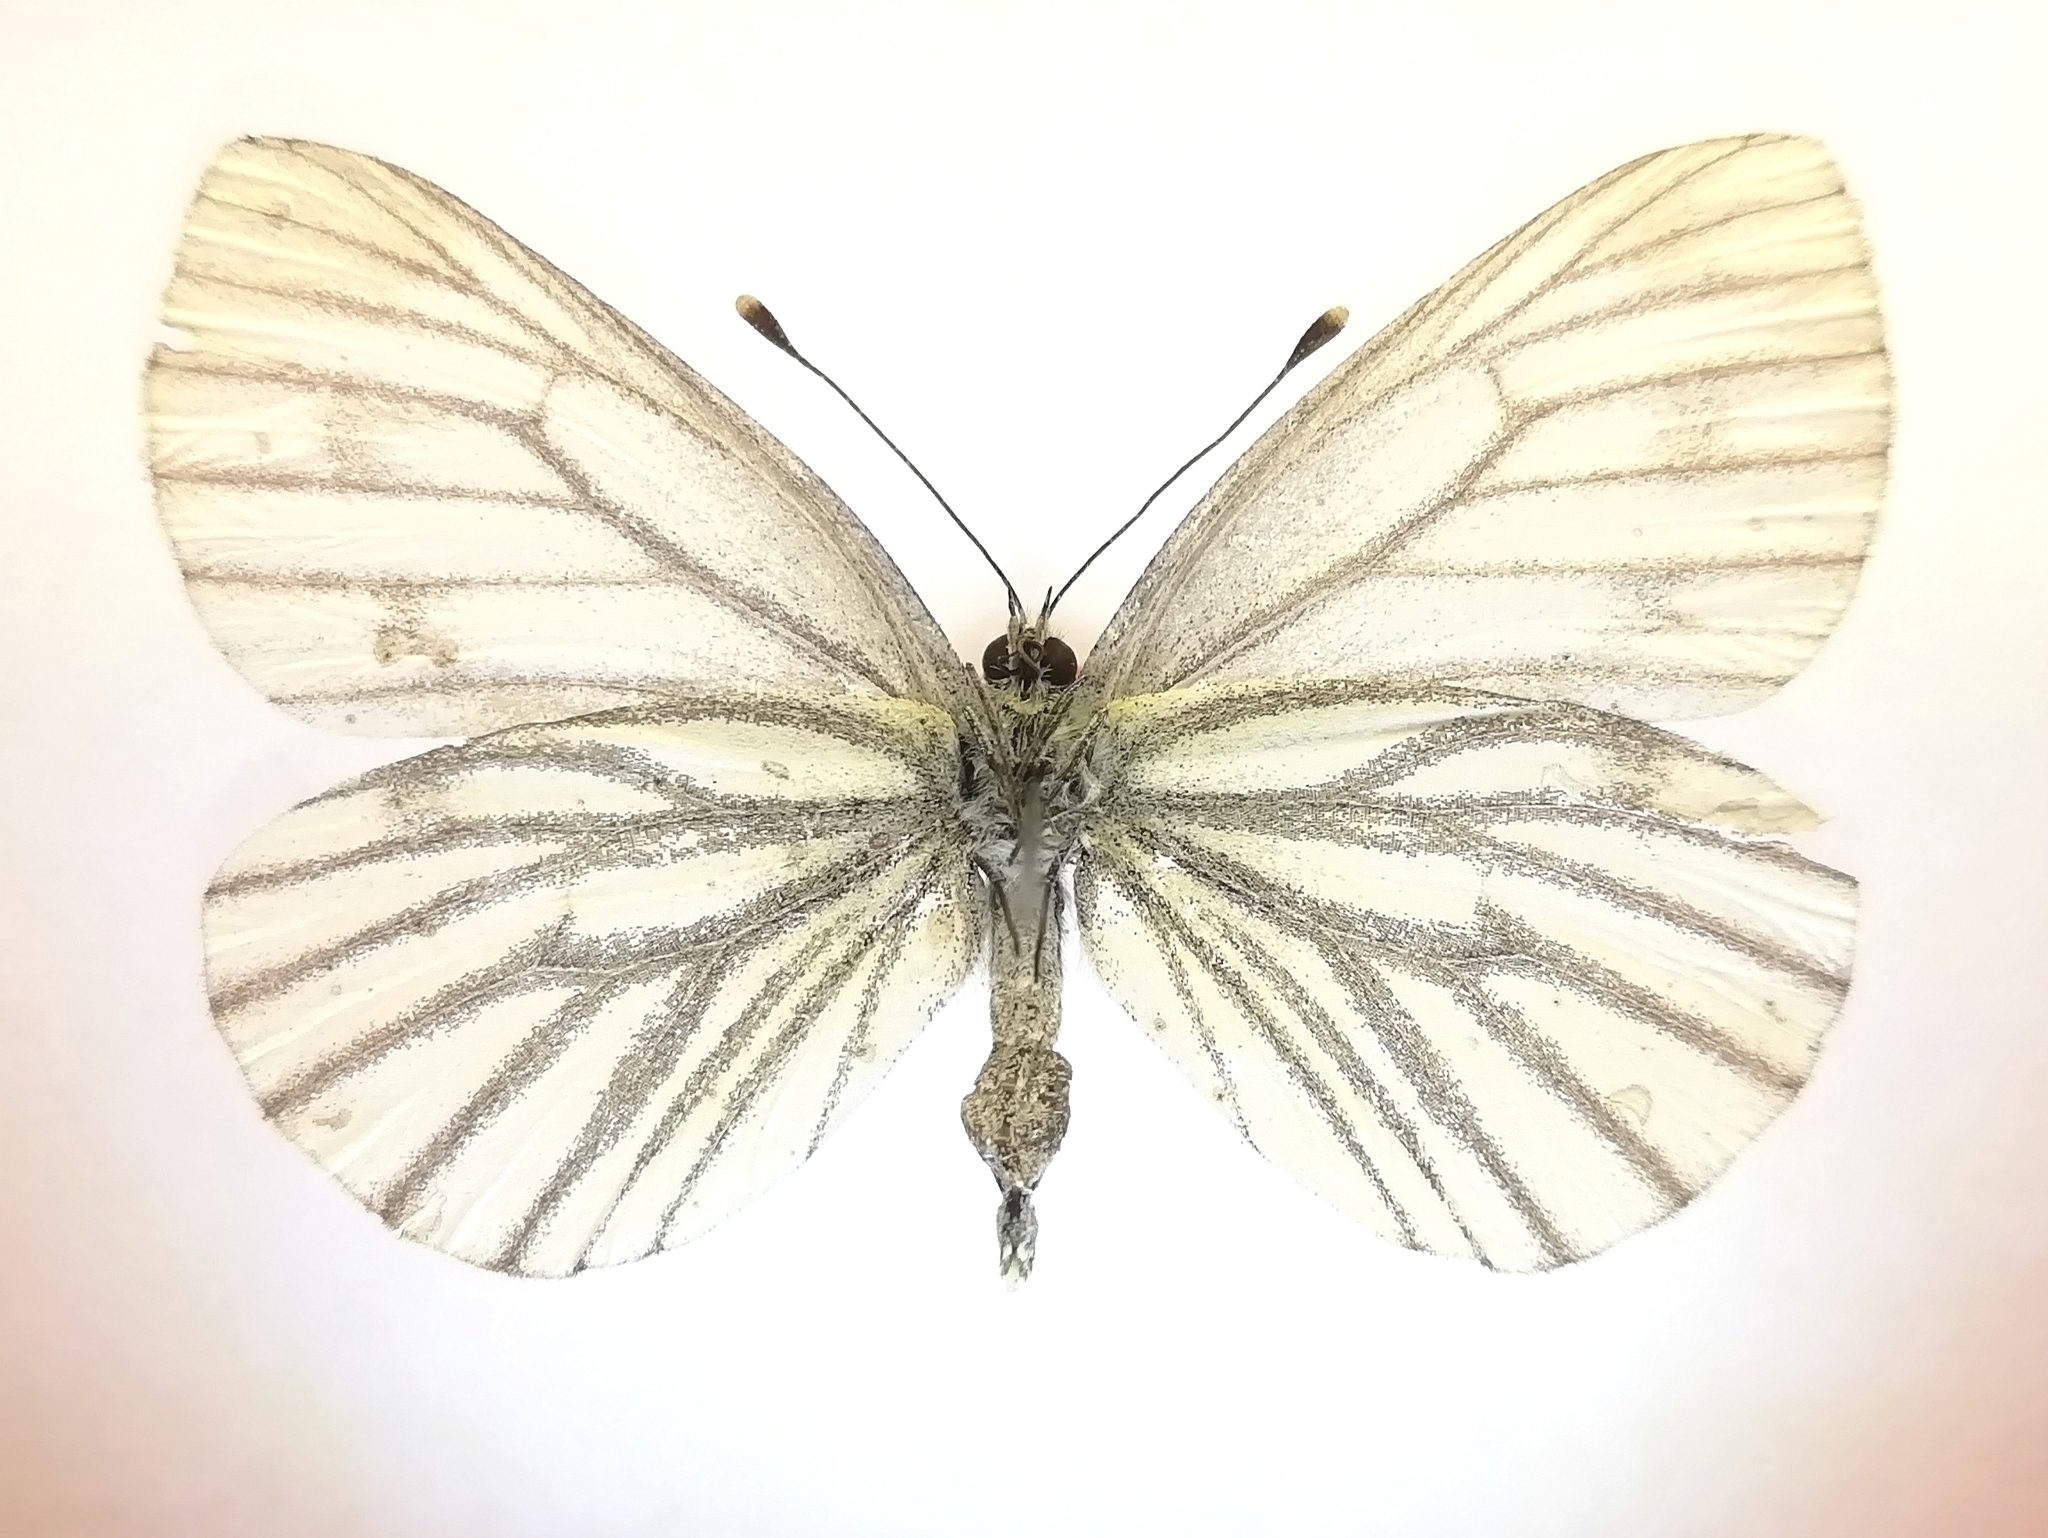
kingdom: Animalia
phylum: Arthropoda
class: Insecta
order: Lepidoptera
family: Pieridae
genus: Pieris
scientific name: Pieris napi
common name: Green-veined white
